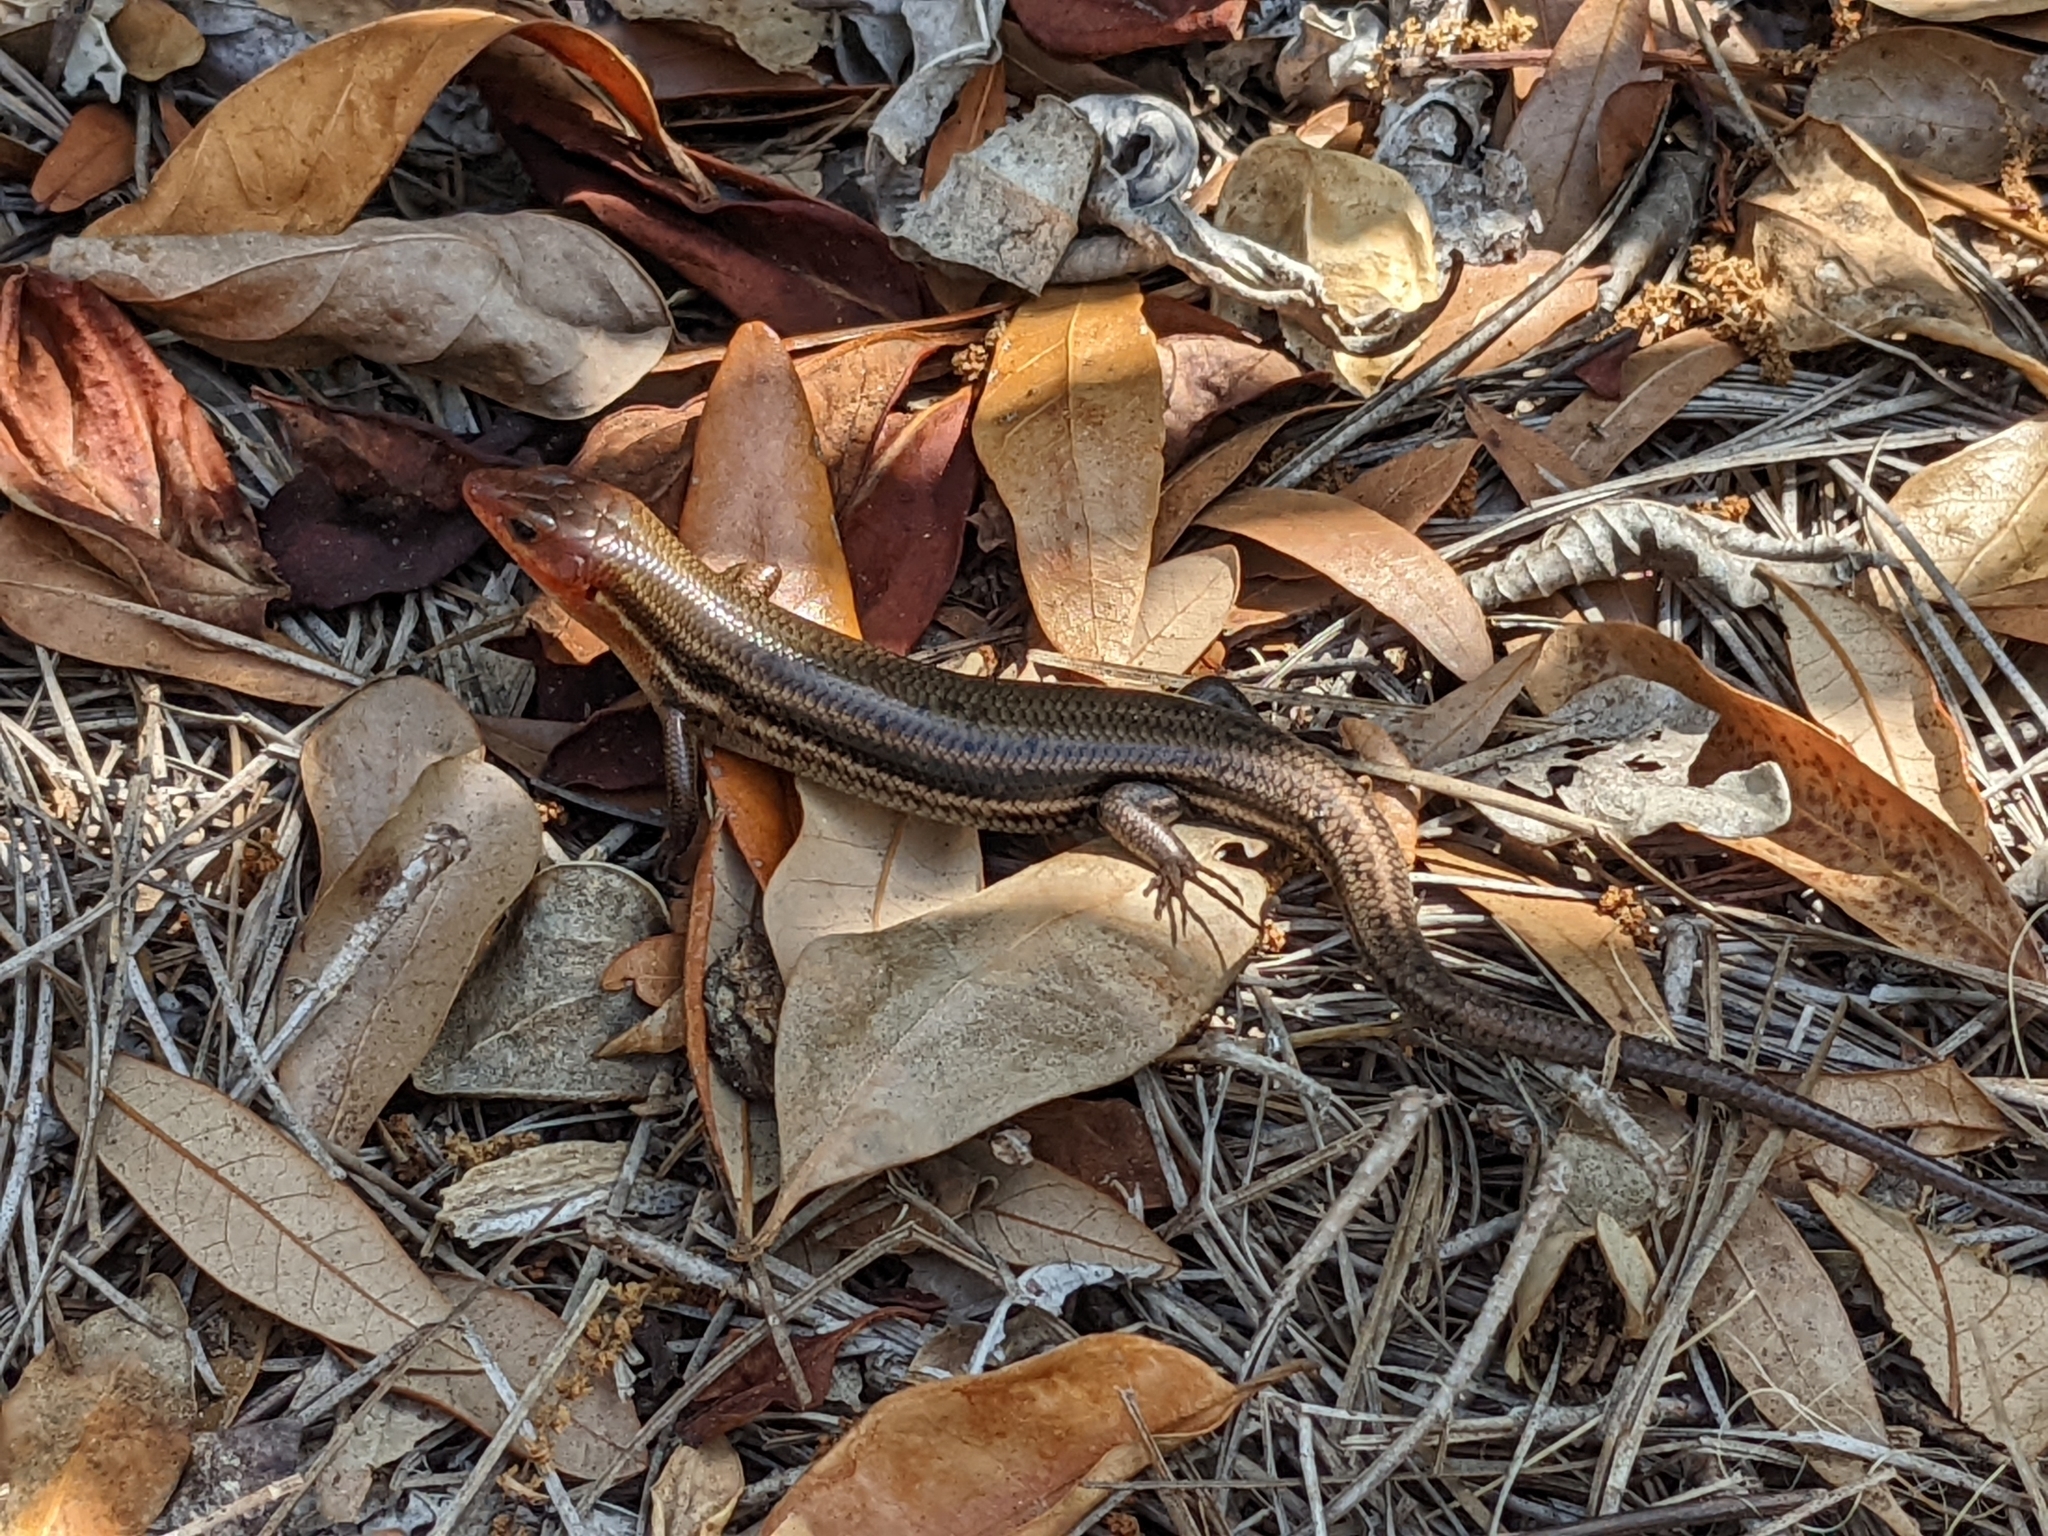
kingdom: Animalia
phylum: Chordata
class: Squamata
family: Scincidae
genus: Plestiodon
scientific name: Plestiodon inexpectatus
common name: Southeastern five-lined skink
